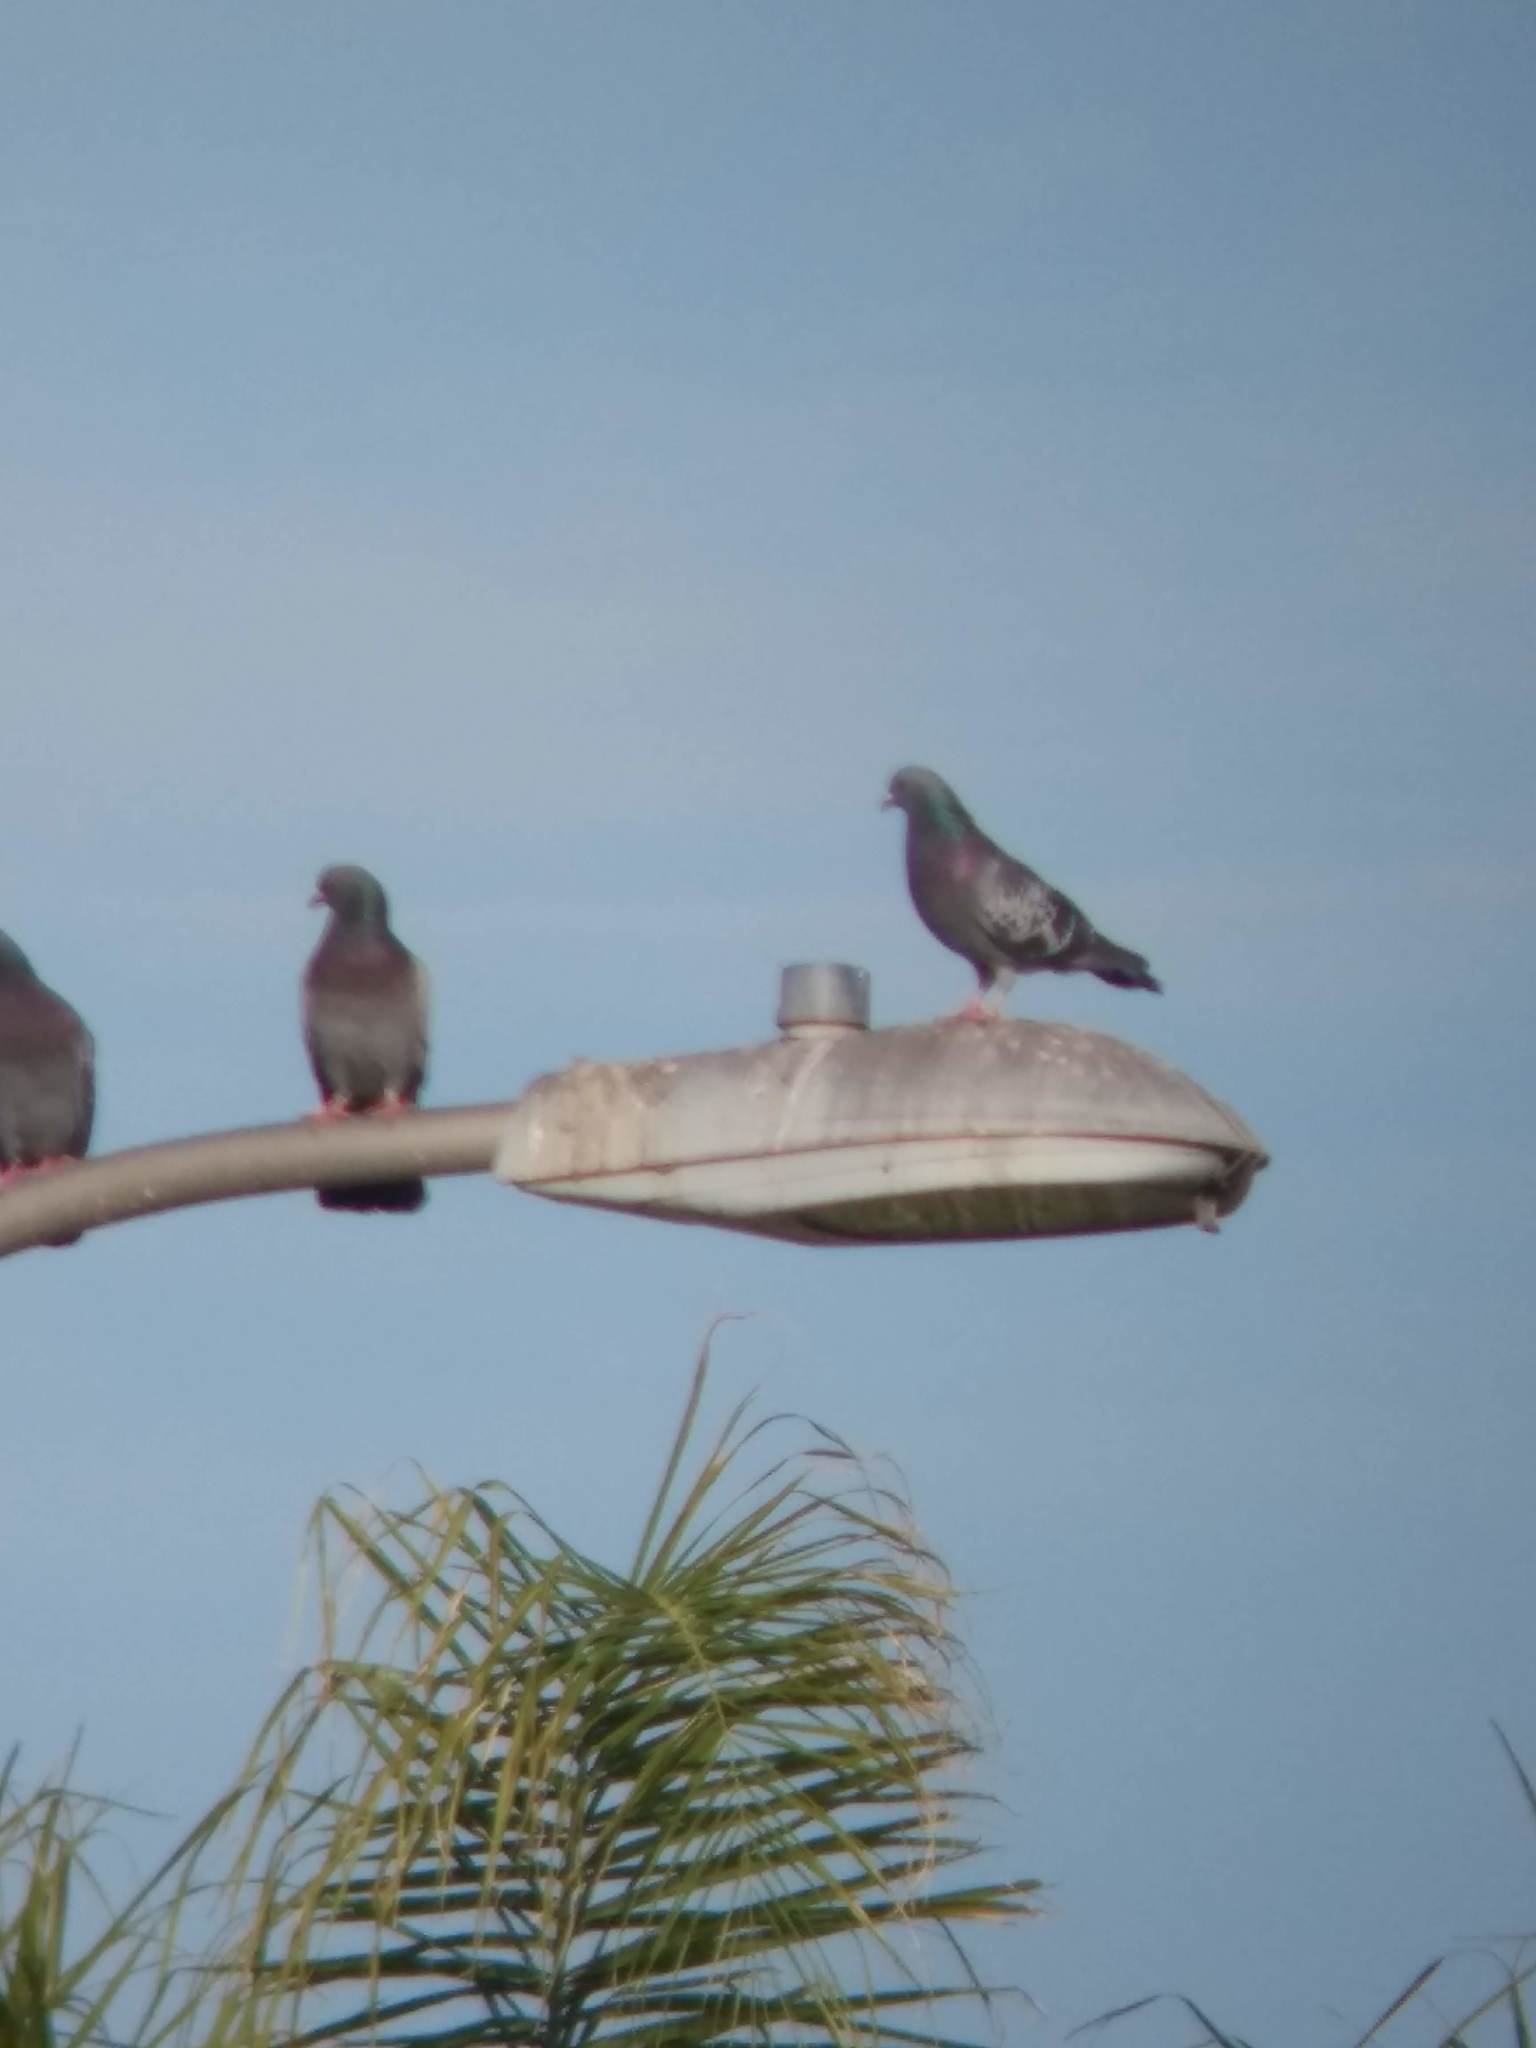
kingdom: Animalia
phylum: Chordata
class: Aves
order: Columbiformes
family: Columbidae
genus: Columba
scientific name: Columba livia
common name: Rock pigeon
